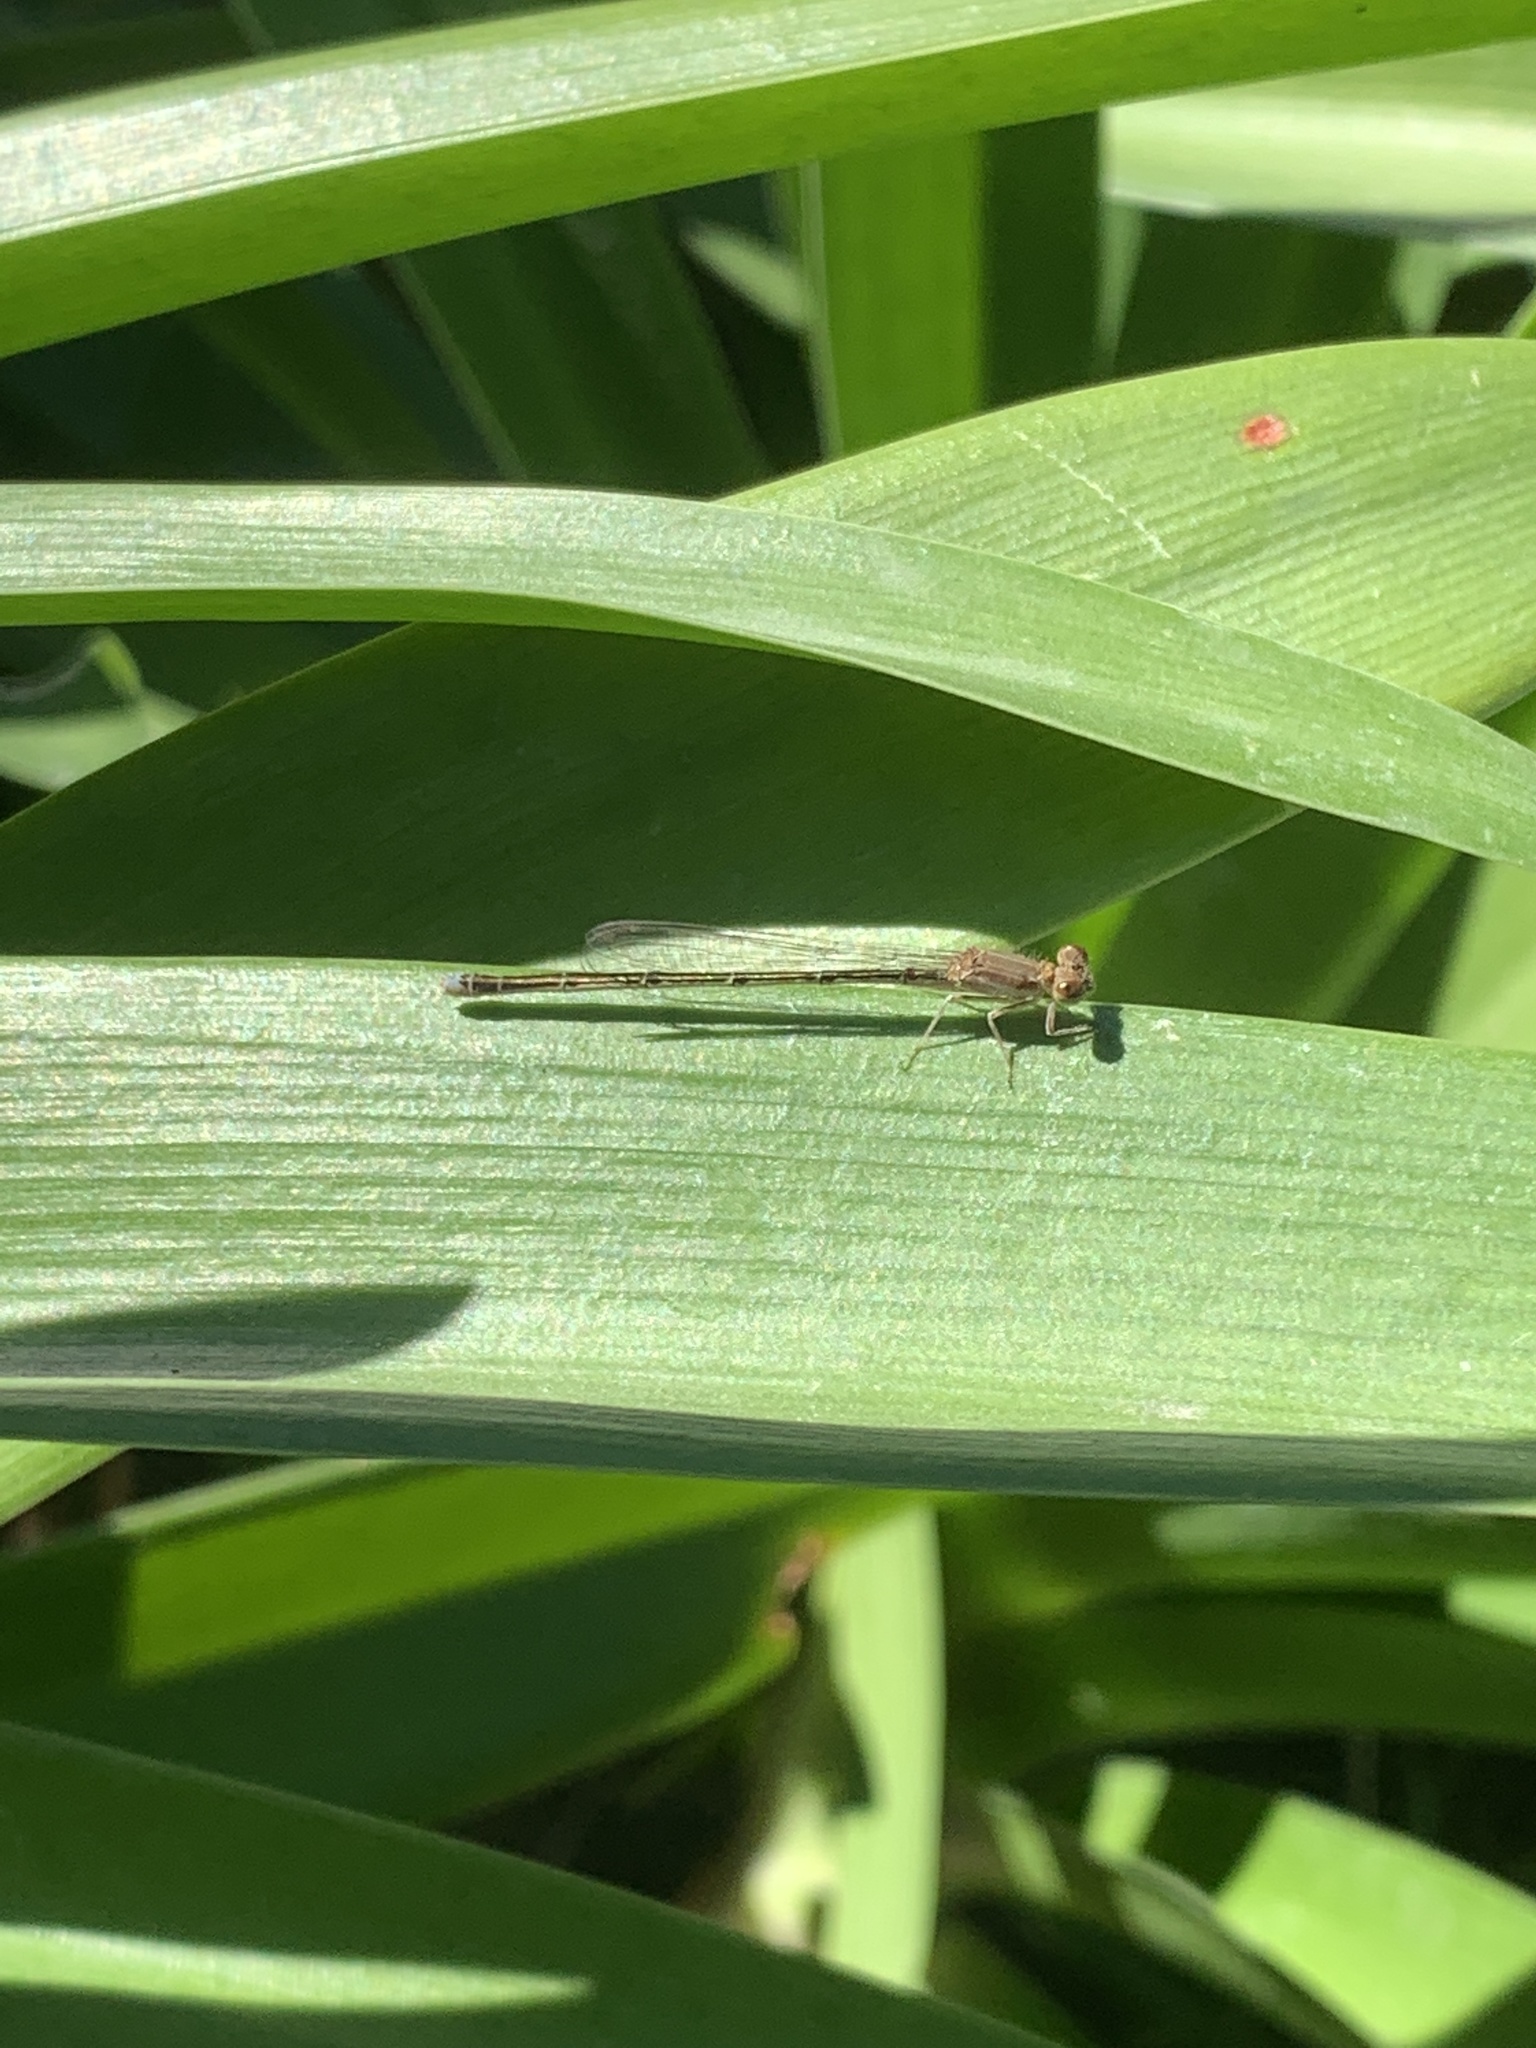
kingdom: Animalia
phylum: Arthropoda
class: Insecta
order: Odonata
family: Coenagrionidae
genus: Argentagrion
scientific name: Argentagrion ambiguum
